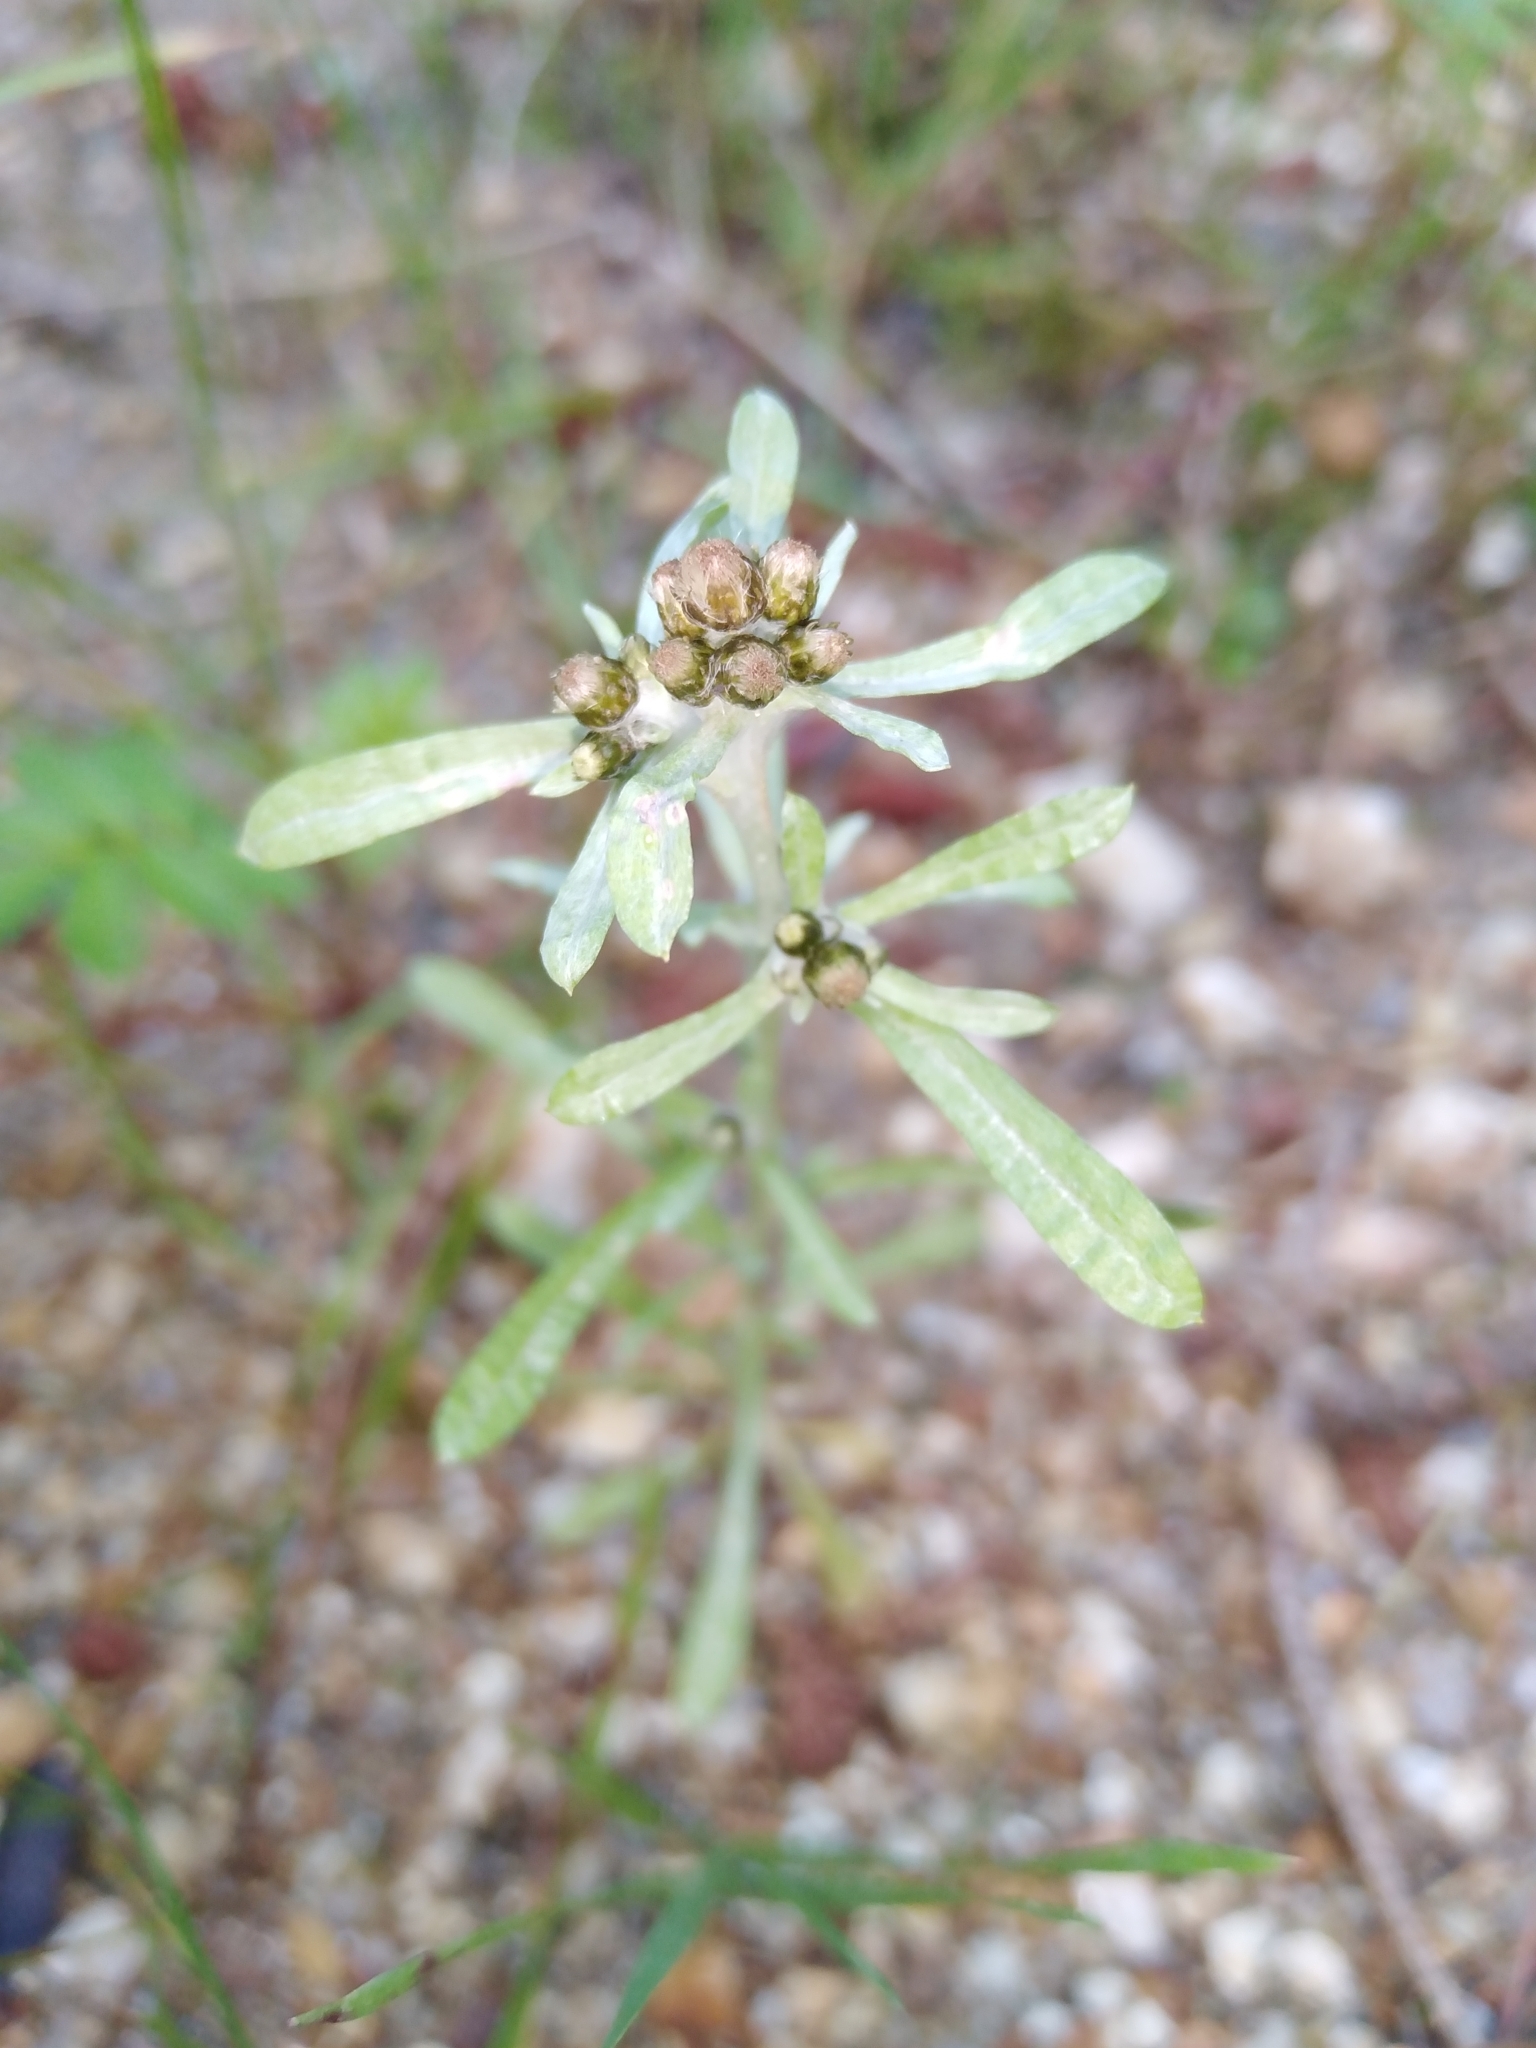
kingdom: Plantae
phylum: Tracheophyta
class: Magnoliopsida
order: Asterales
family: Asteraceae
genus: Gnaphalium
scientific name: Gnaphalium uliginosum
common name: Marsh cudweed
